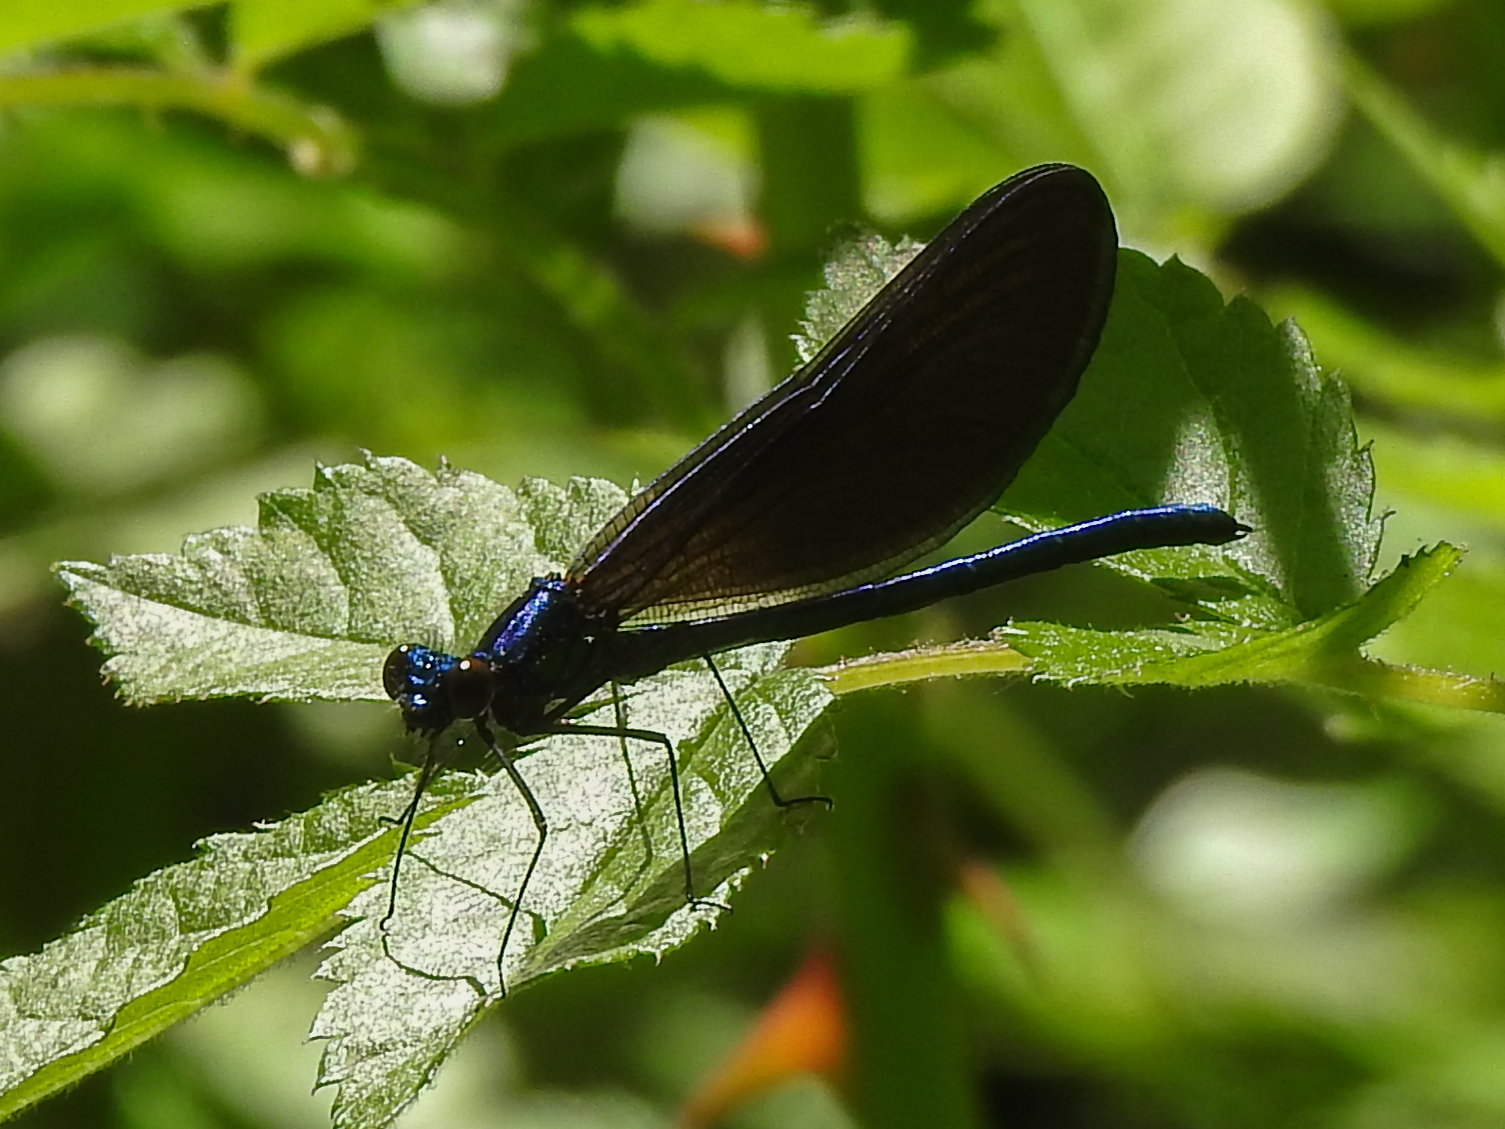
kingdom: Animalia
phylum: Arthropoda
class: Insecta
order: Odonata
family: Calopterygidae
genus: Calopteryx
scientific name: Calopteryx maculata
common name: Ebony jewelwing
